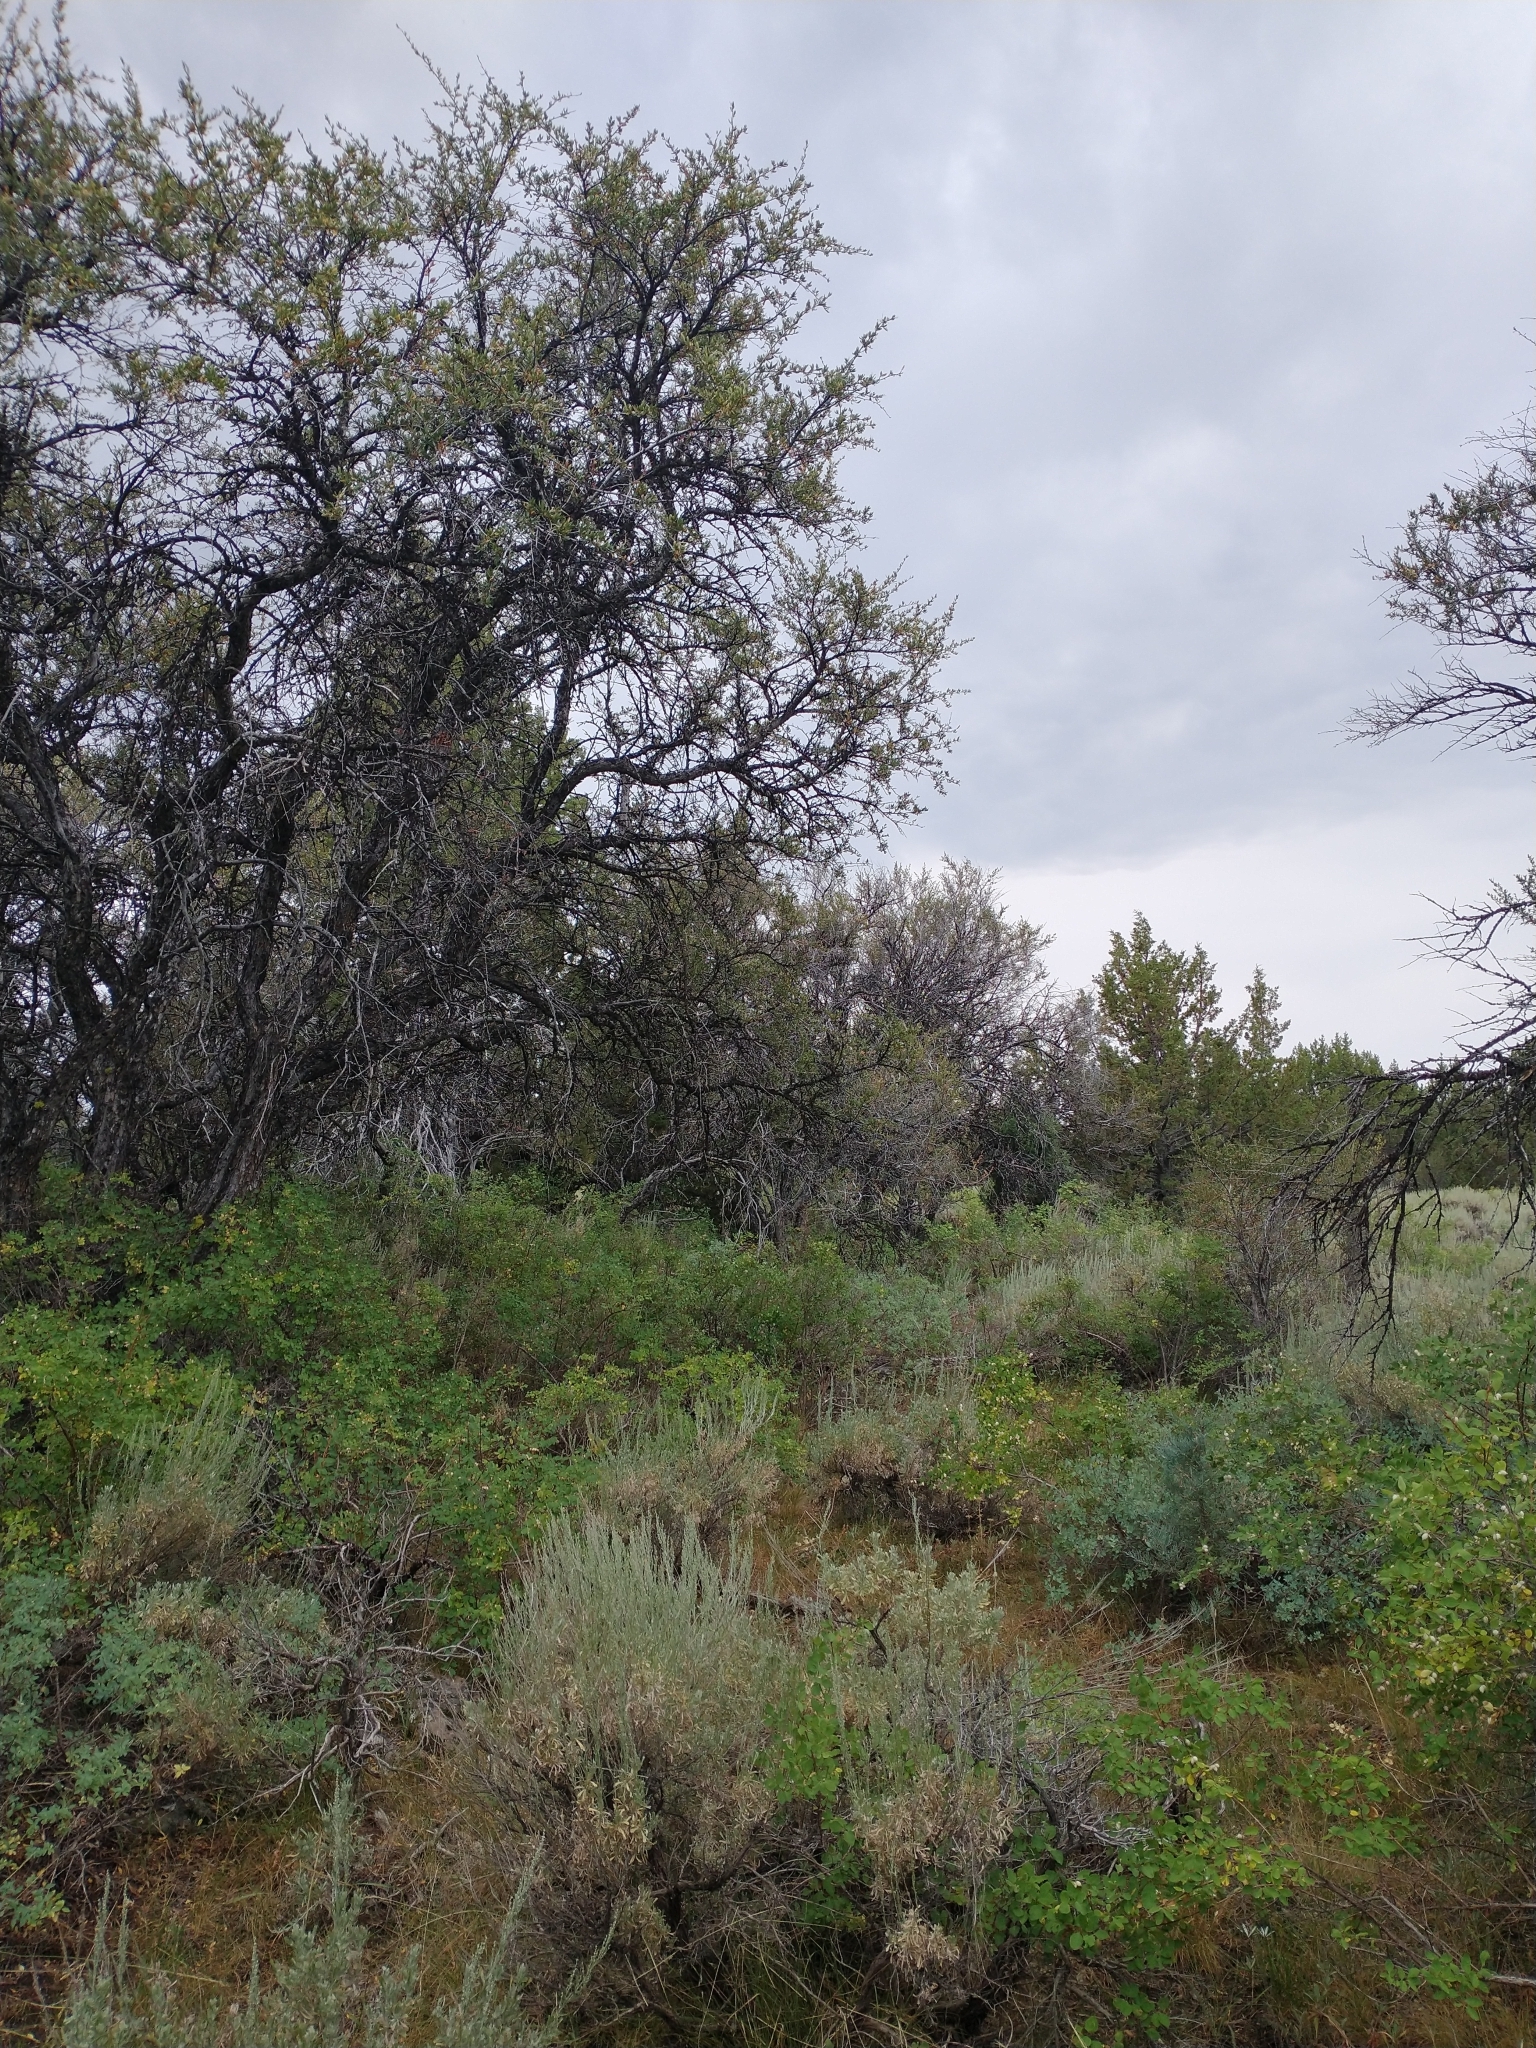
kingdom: Plantae
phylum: Tracheophyta
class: Magnoliopsida
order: Rosales
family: Rosaceae
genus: Cercocarpus
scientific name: Cercocarpus ledifolius
